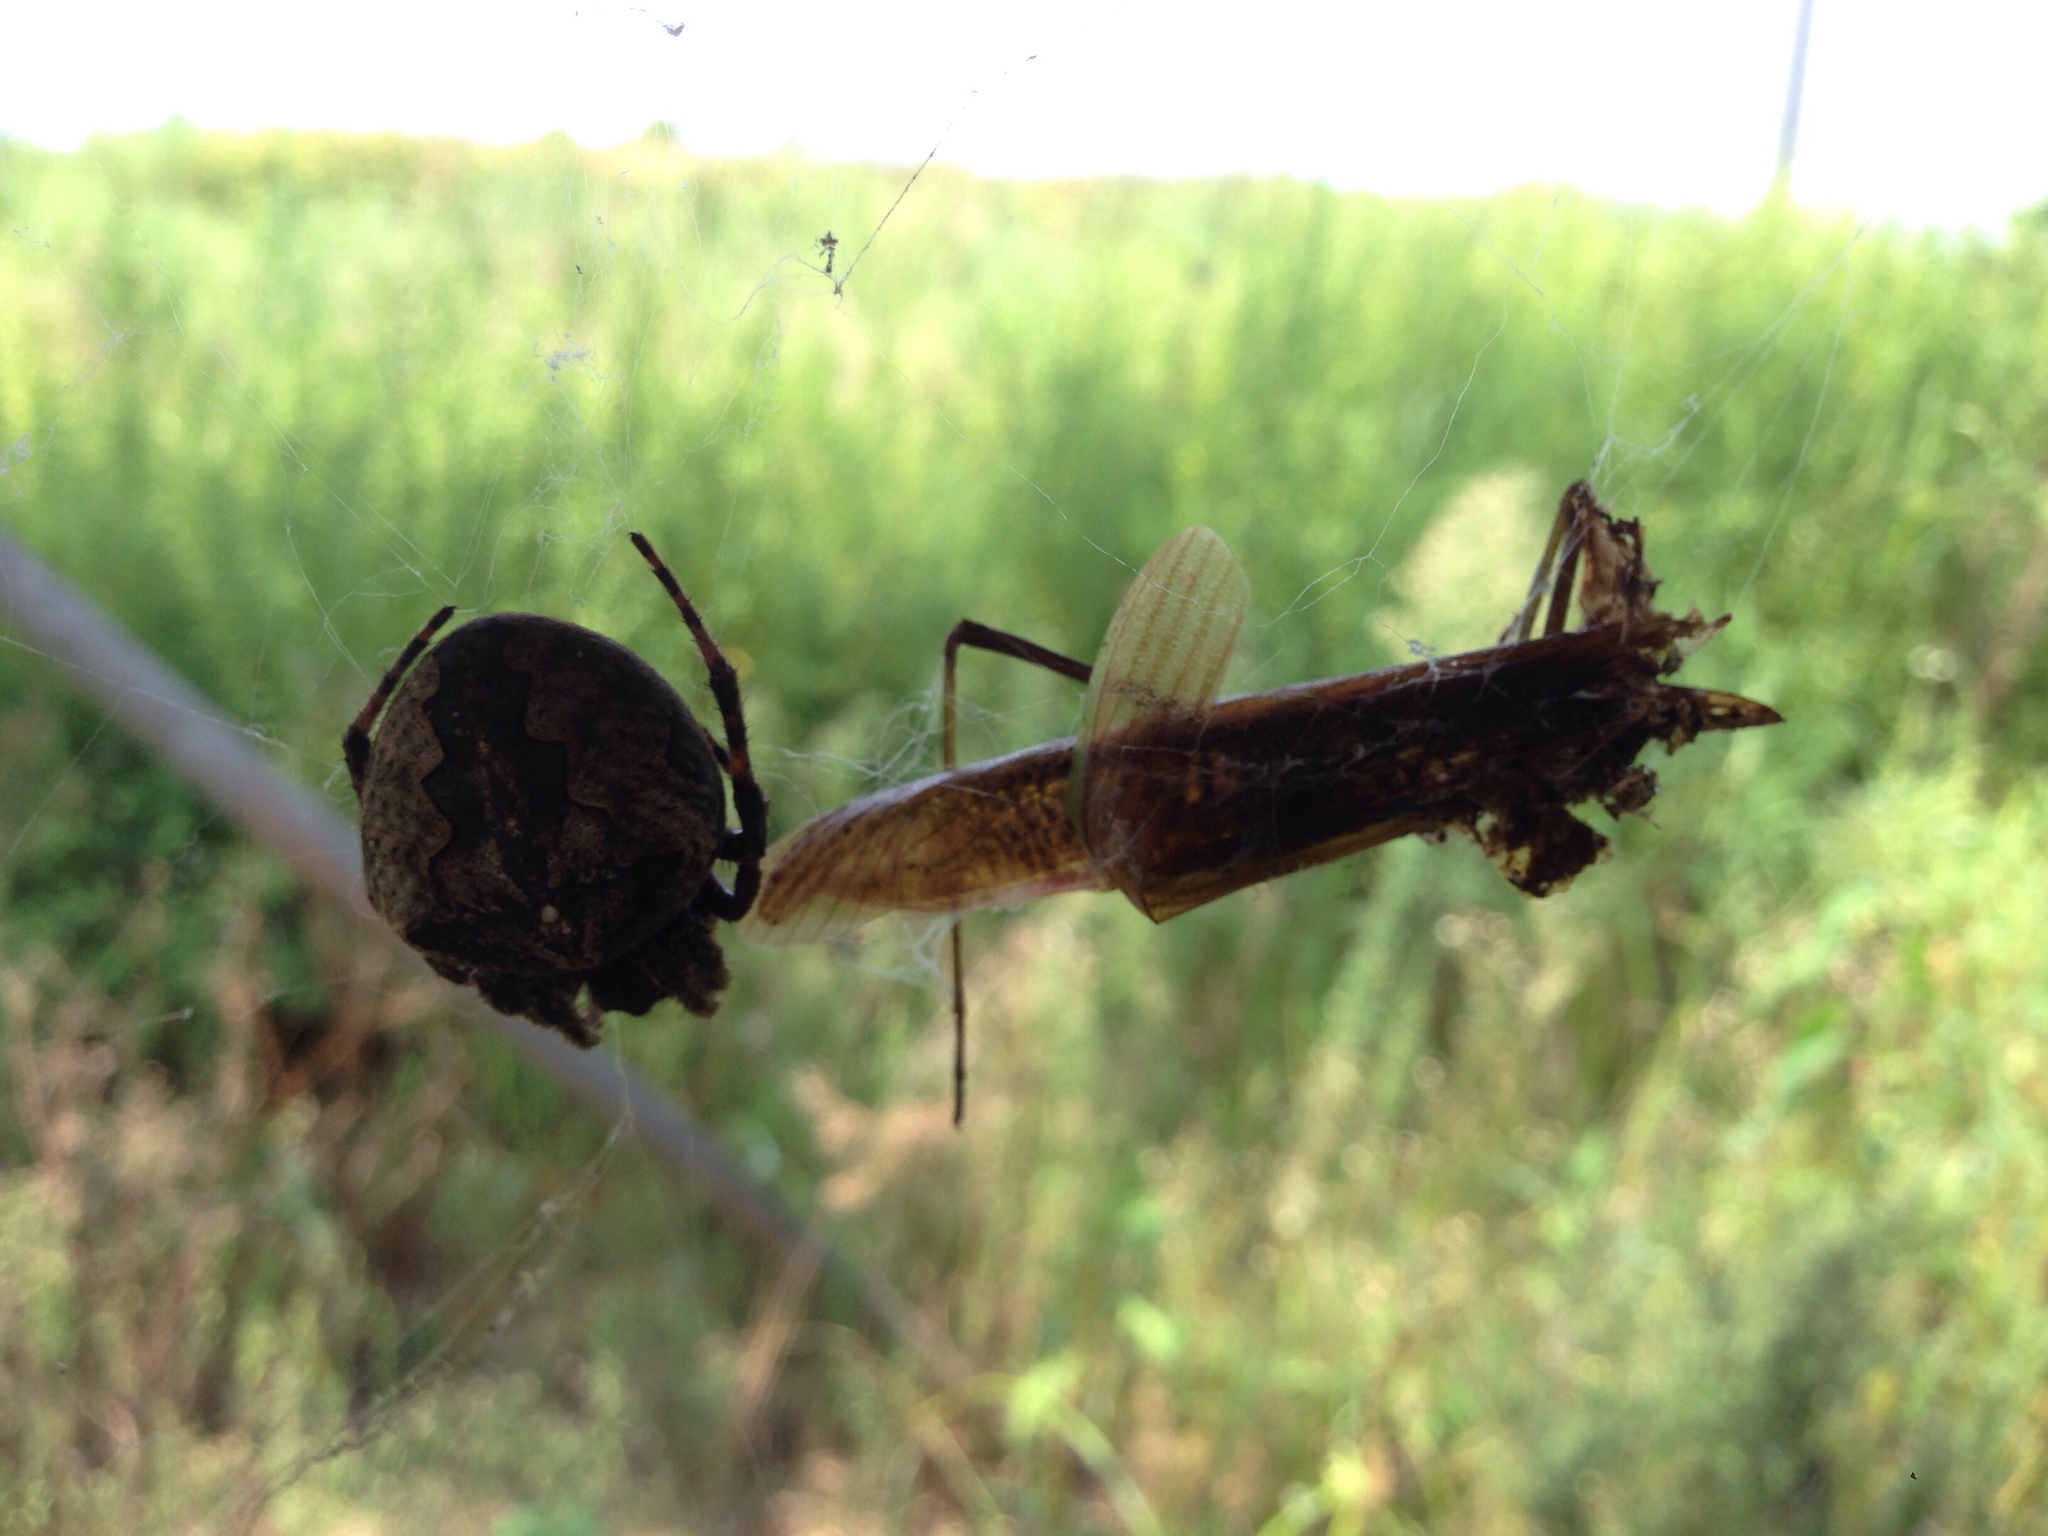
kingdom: Animalia
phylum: Arthropoda
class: Arachnida
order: Araneae
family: Araneidae
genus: Araneus
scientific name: Araneus ventricosus
